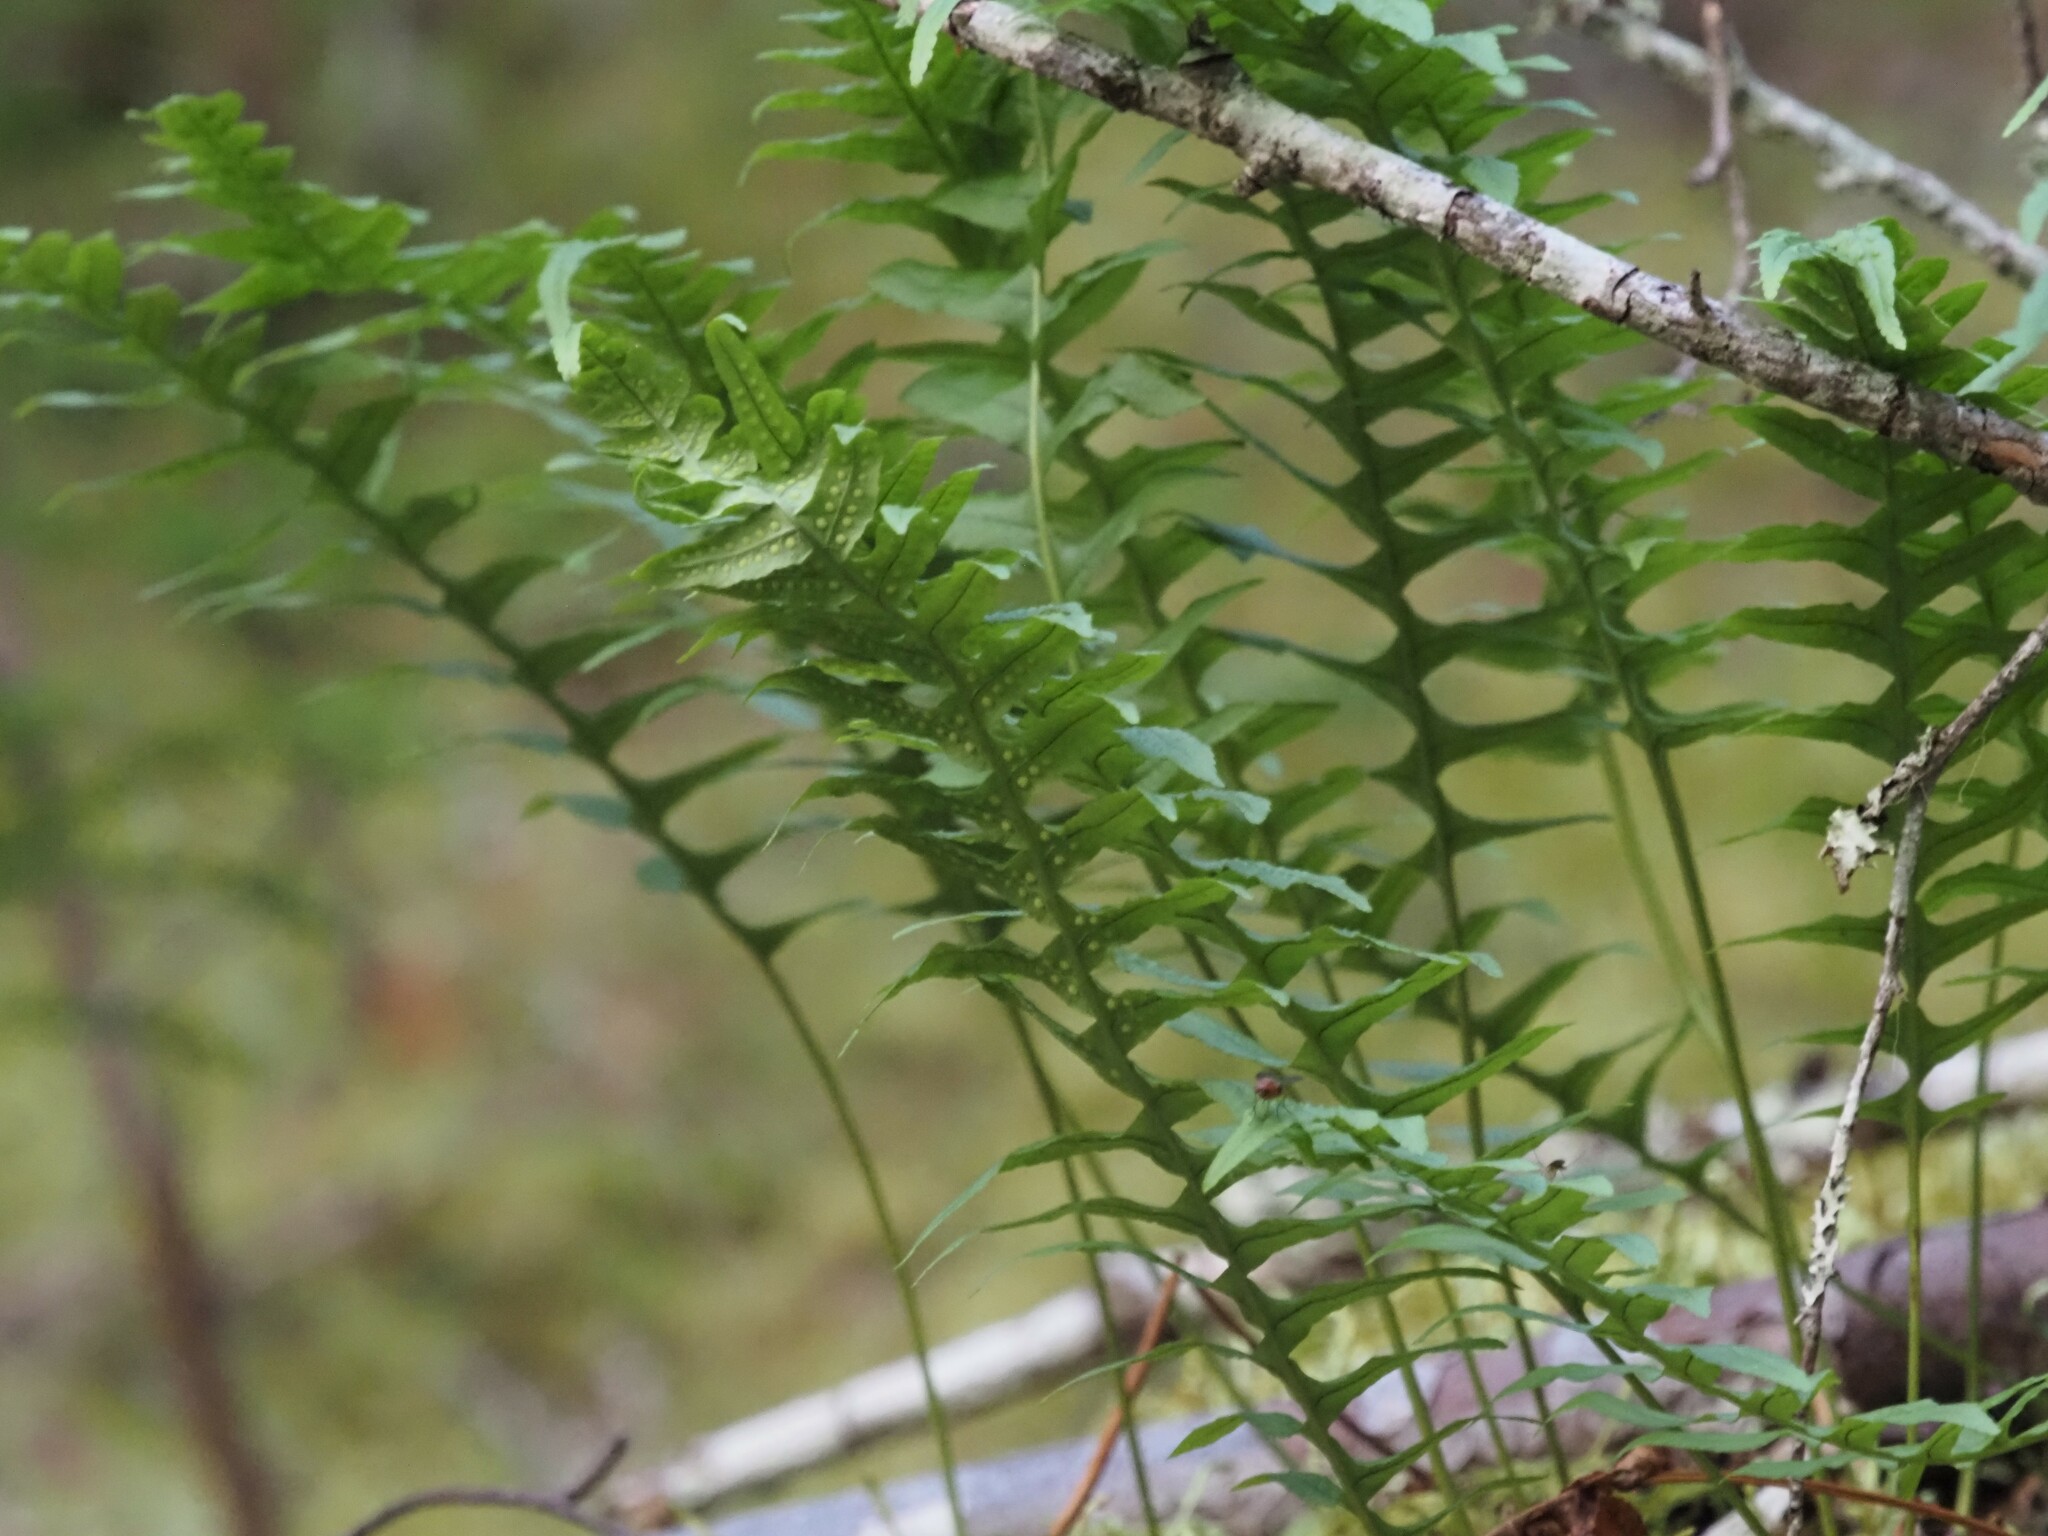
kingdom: Plantae
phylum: Tracheophyta
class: Polypodiopsida
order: Polypodiales
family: Polypodiaceae
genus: Polypodium
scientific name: Polypodium glycyrrhiza
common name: Licorice fern
